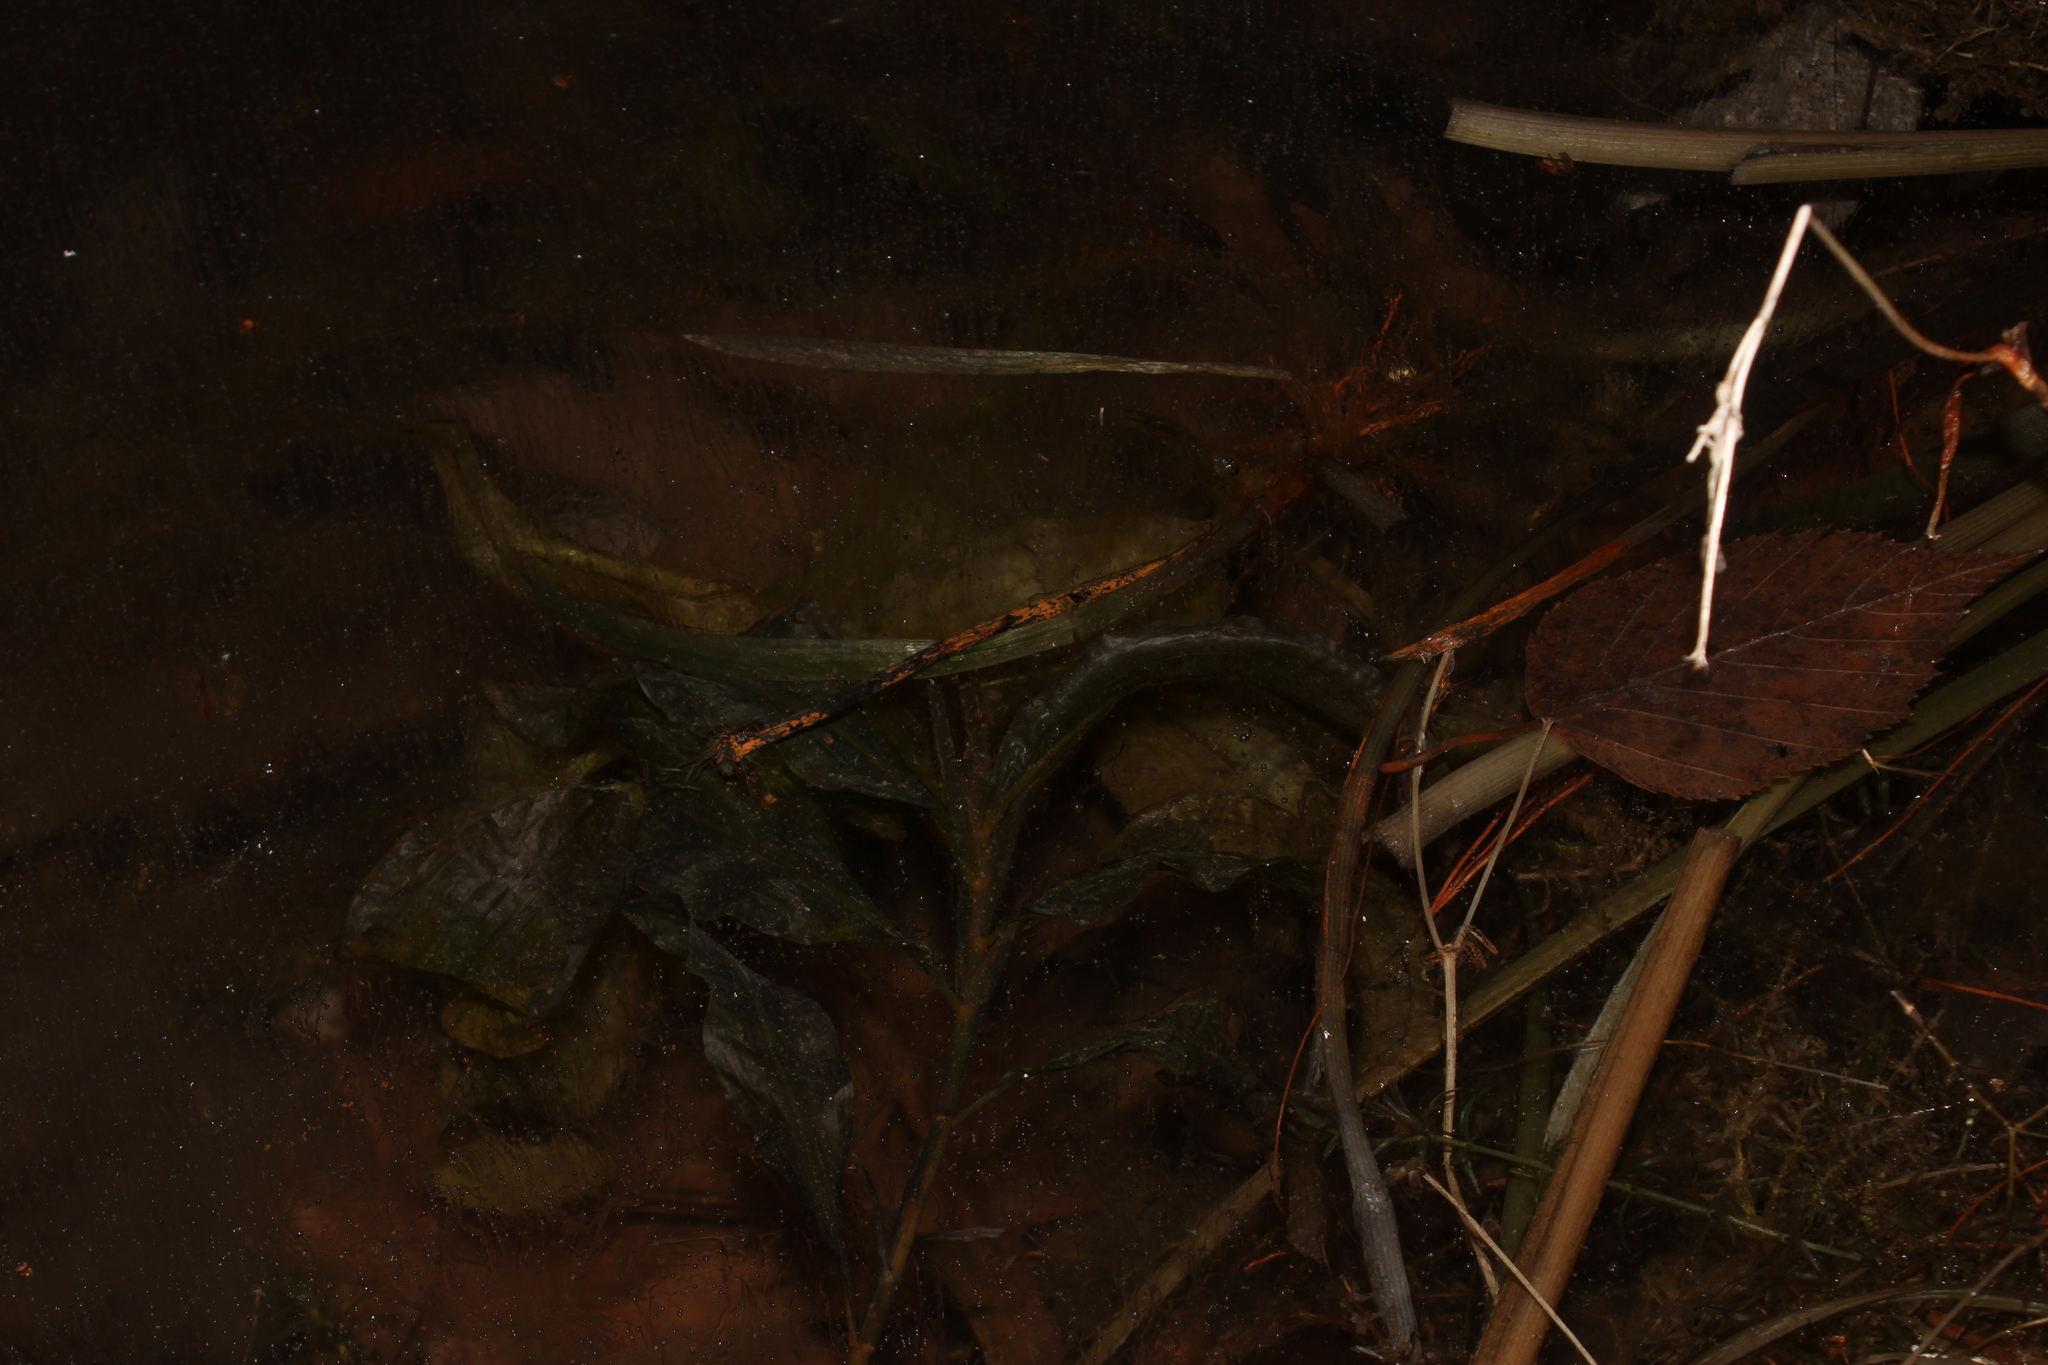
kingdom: Plantae
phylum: Tracheophyta
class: Liliopsida
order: Alismatales
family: Potamogetonaceae
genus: Potamogeton
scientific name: Potamogeton amplifolius
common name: Broad-leaved pondweed
